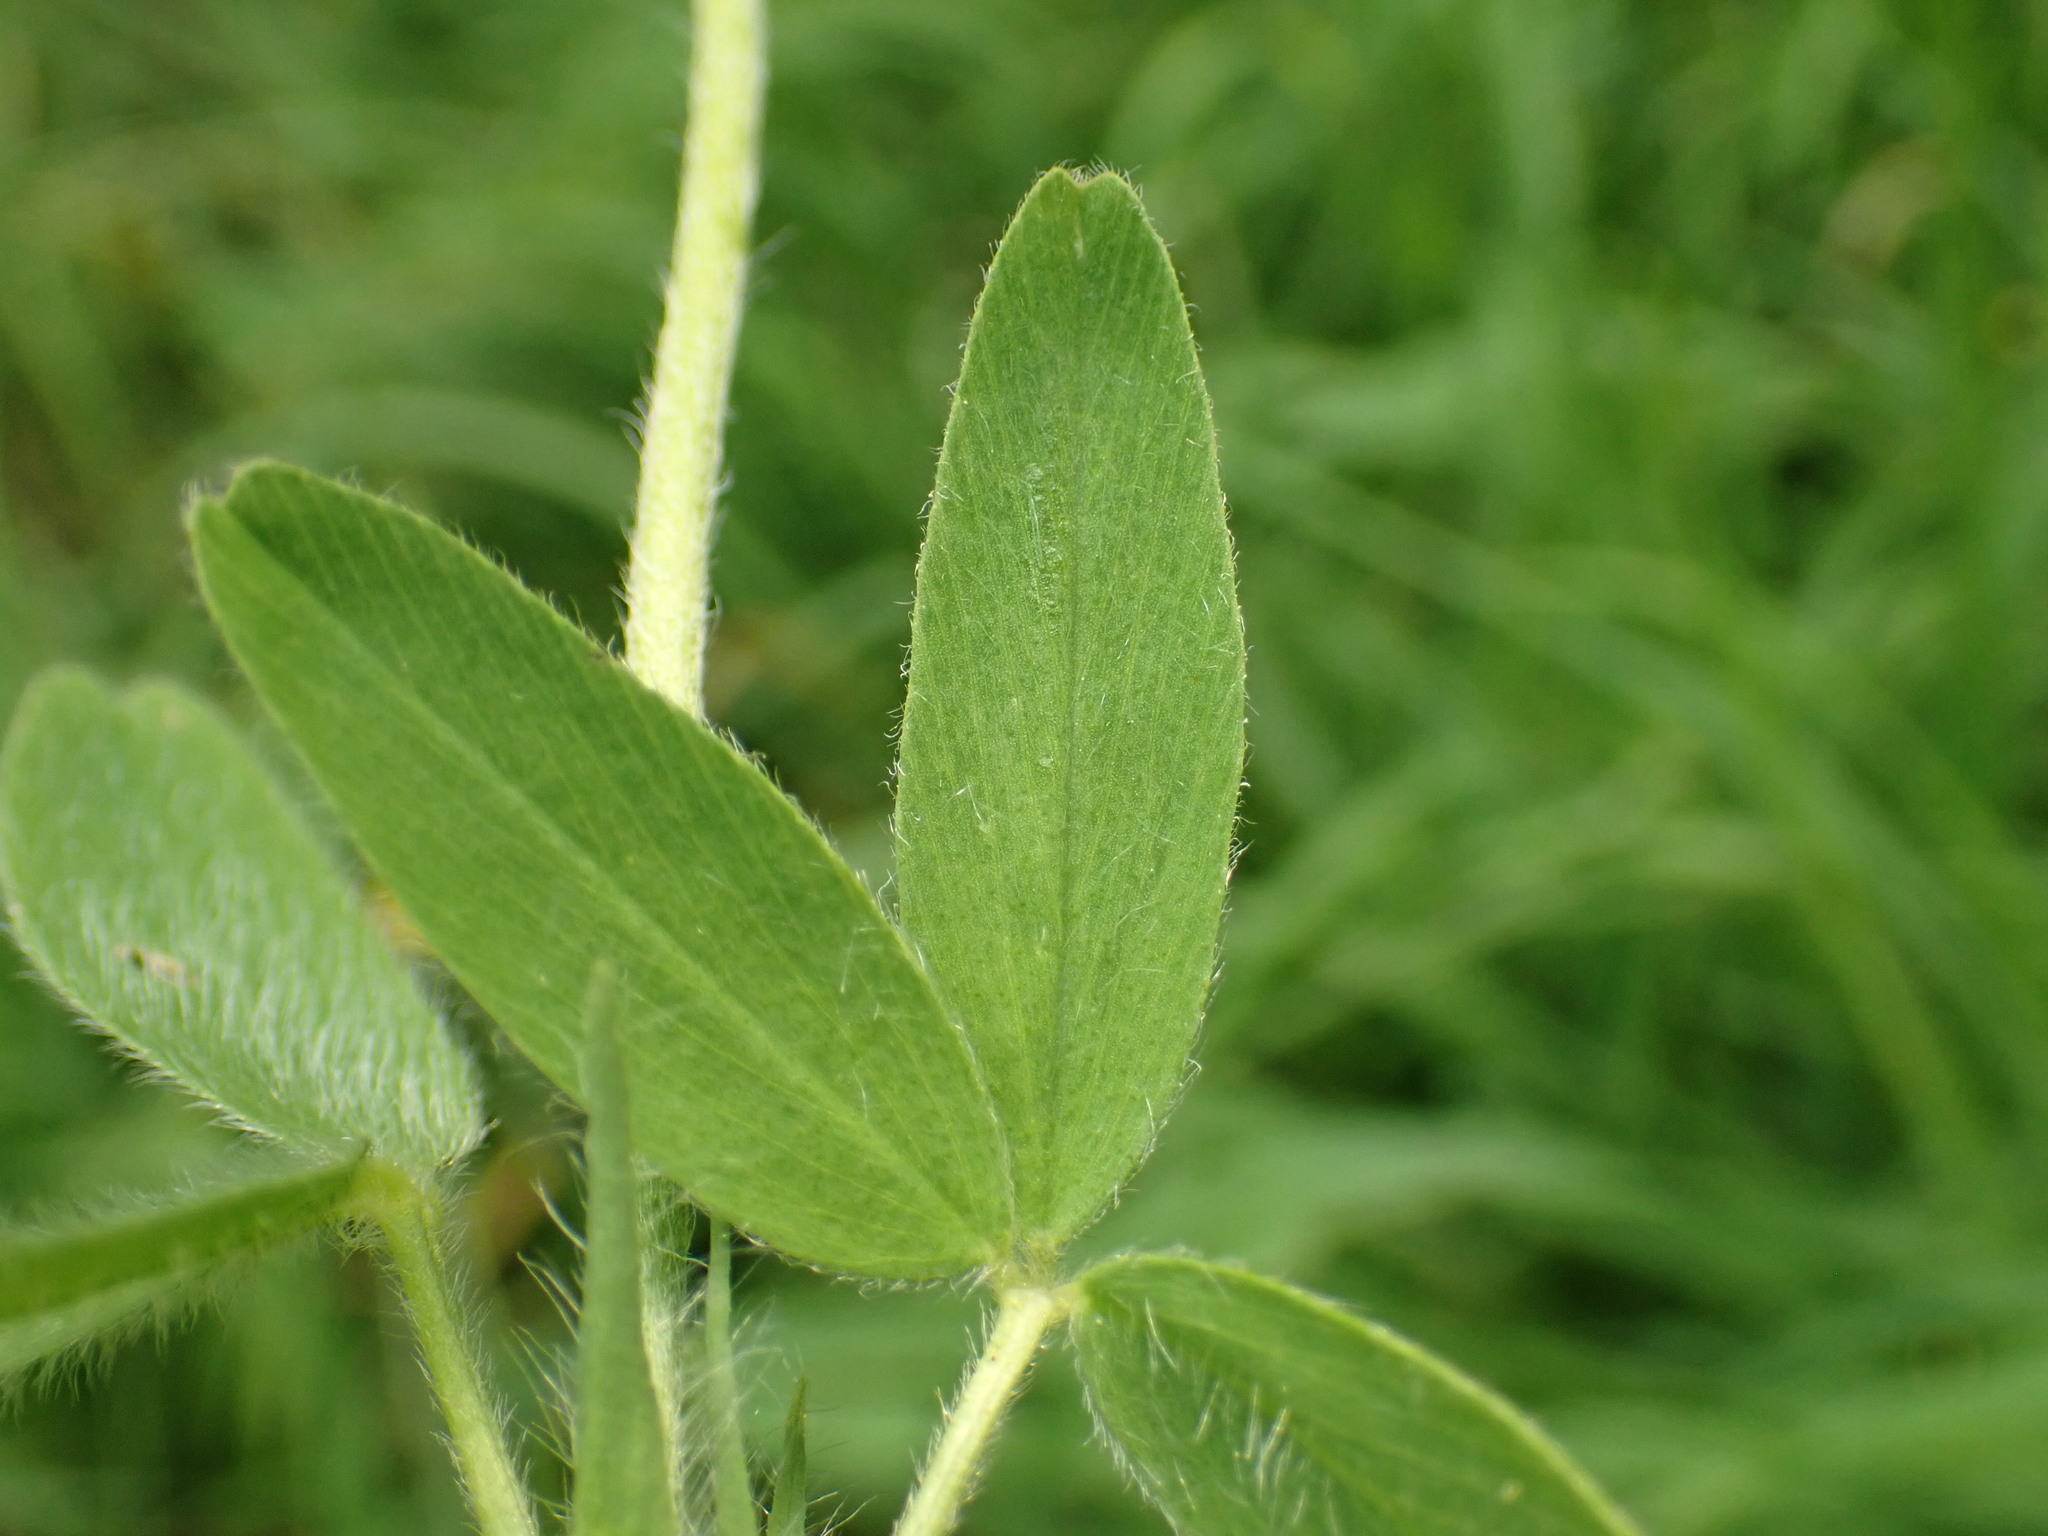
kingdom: Plantae
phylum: Tracheophyta
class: Magnoliopsida
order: Fabales
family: Fabaceae
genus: Trifolium
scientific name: Trifolium ochroleucon
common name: Sulphur clover
